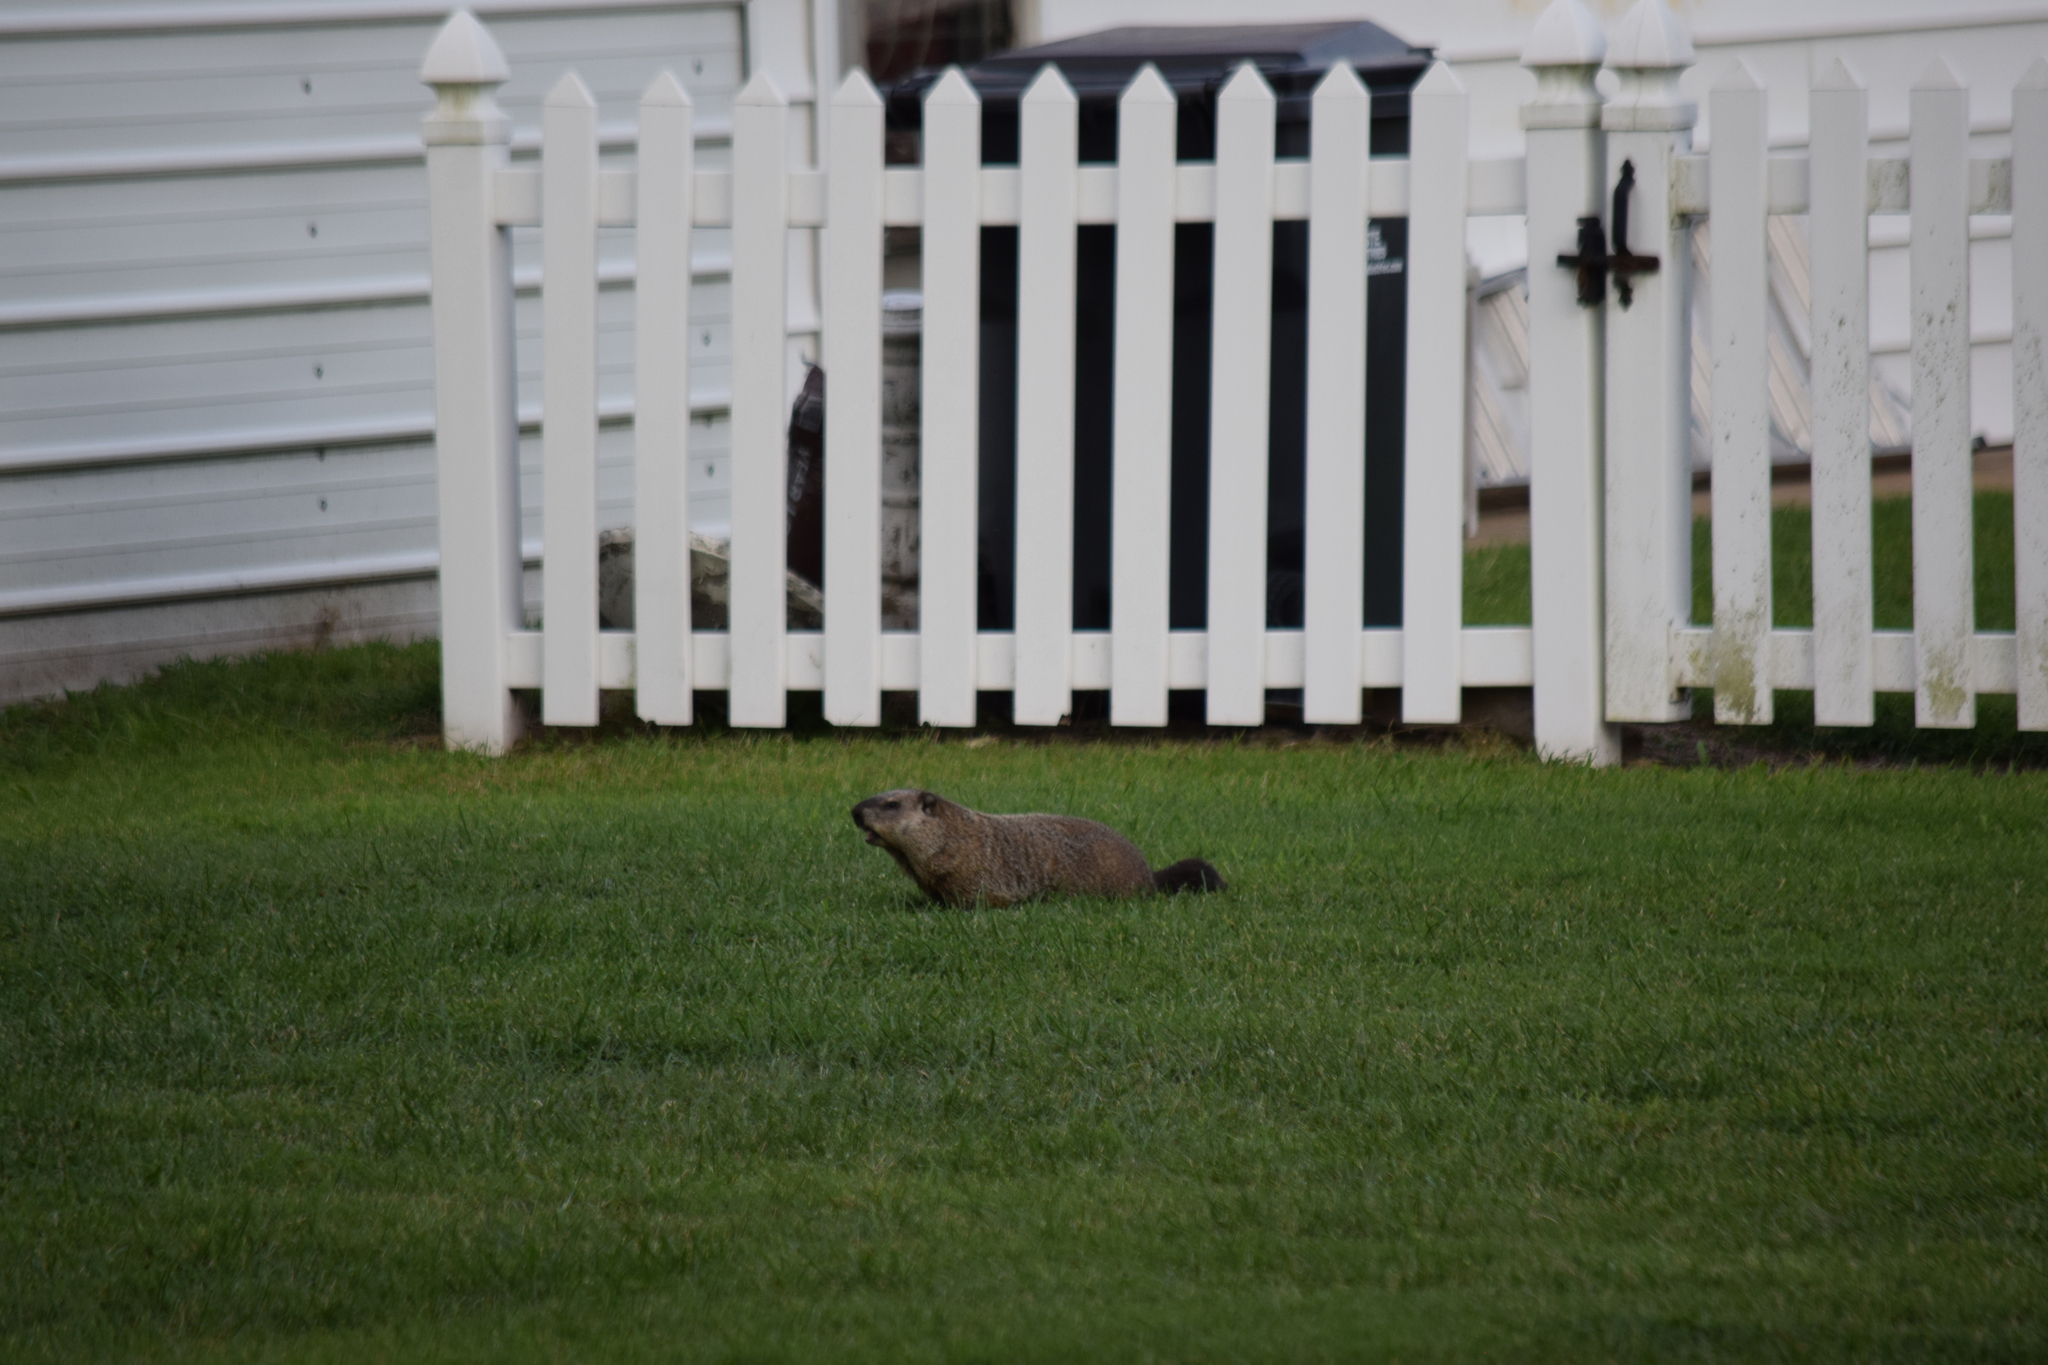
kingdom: Animalia
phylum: Chordata
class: Mammalia
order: Rodentia
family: Sciuridae
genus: Marmota
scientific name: Marmota monax
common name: Groundhog
